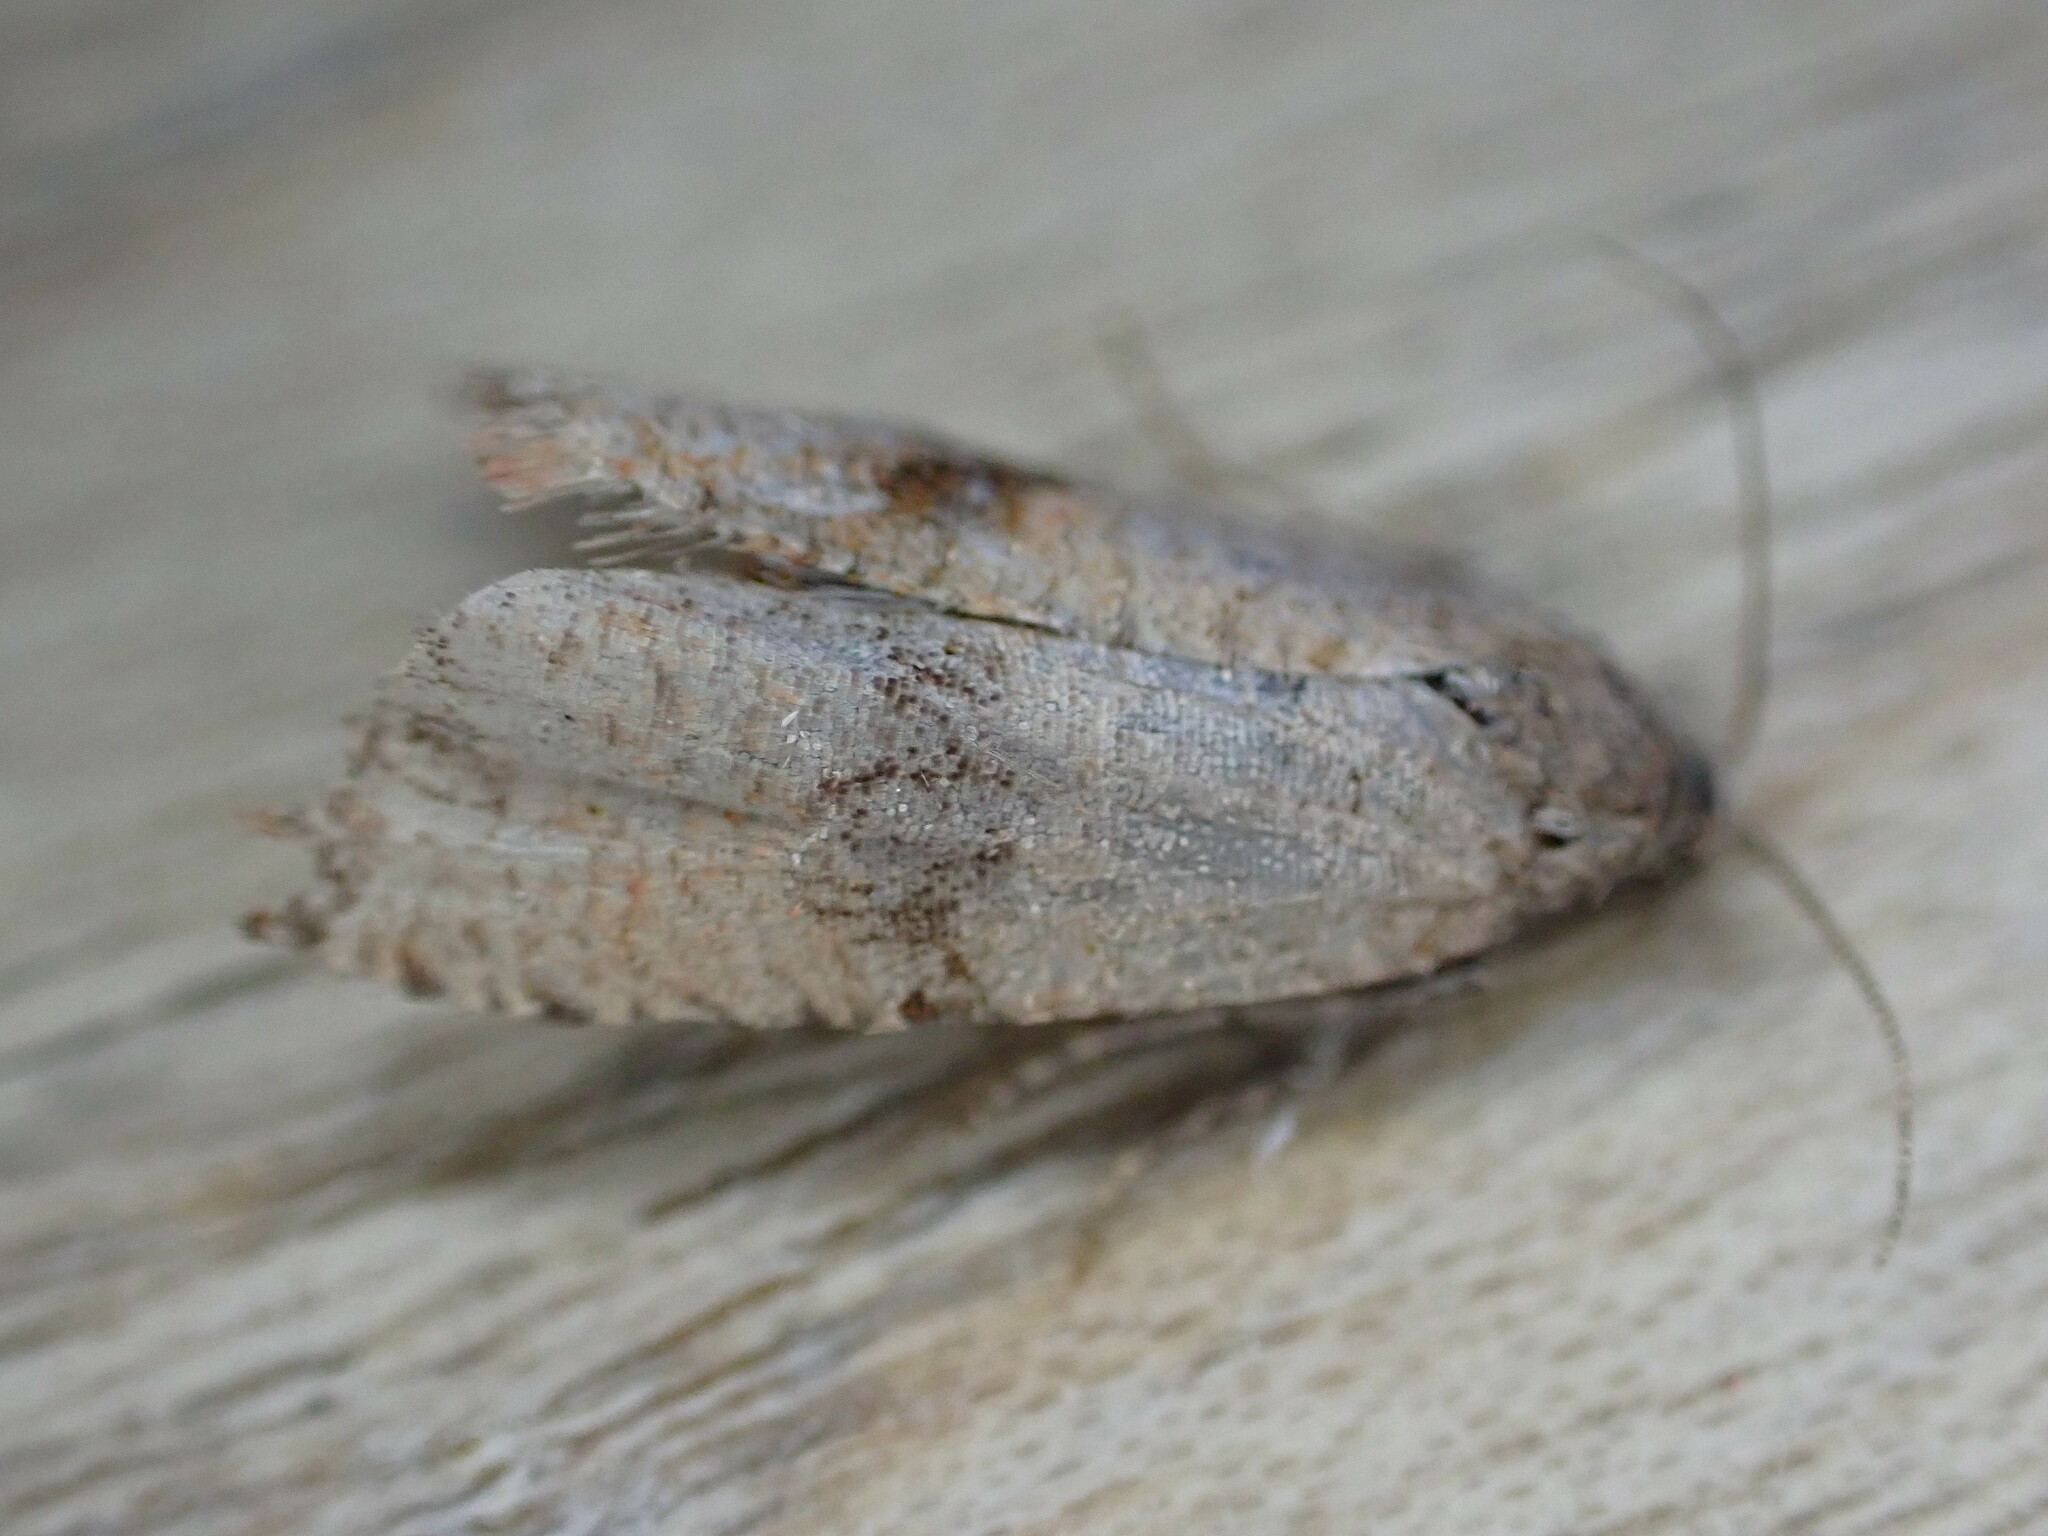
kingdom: Animalia
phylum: Arthropoda
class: Insecta
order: Lepidoptera
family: Tortricidae
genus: Celypha
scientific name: Celypha striana
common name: Barred marble
